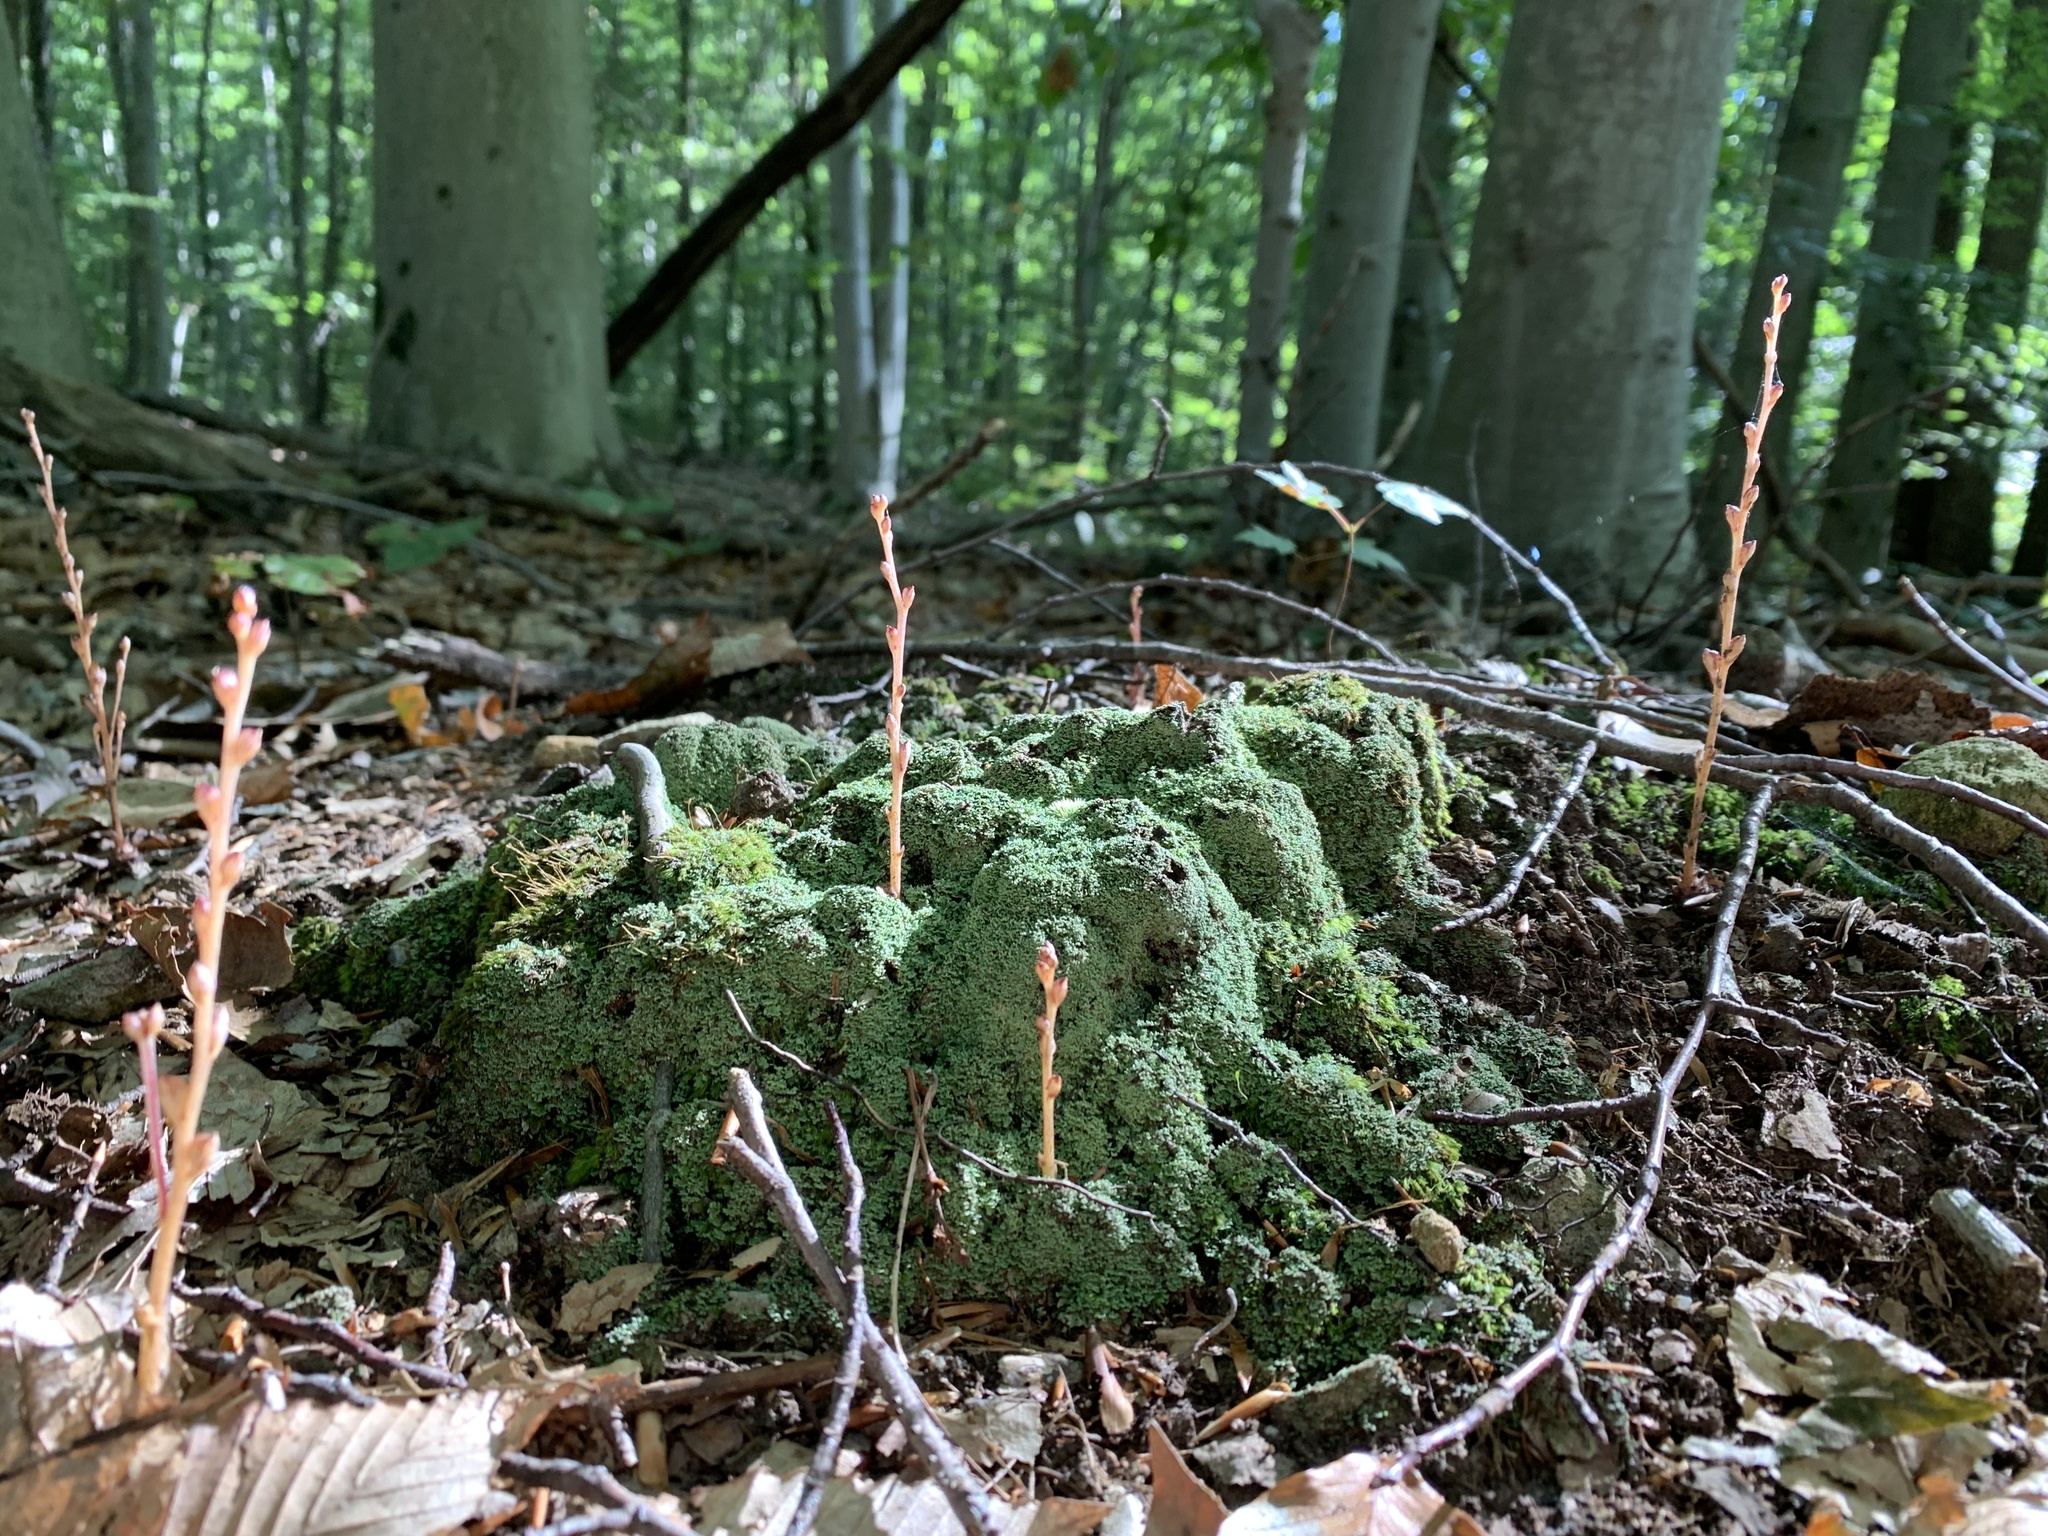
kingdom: Plantae
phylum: Tracheophyta
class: Magnoliopsida
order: Lamiales
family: Orobanchaceae
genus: Epifagus
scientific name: Epifagus virginiana
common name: Beechdrops
